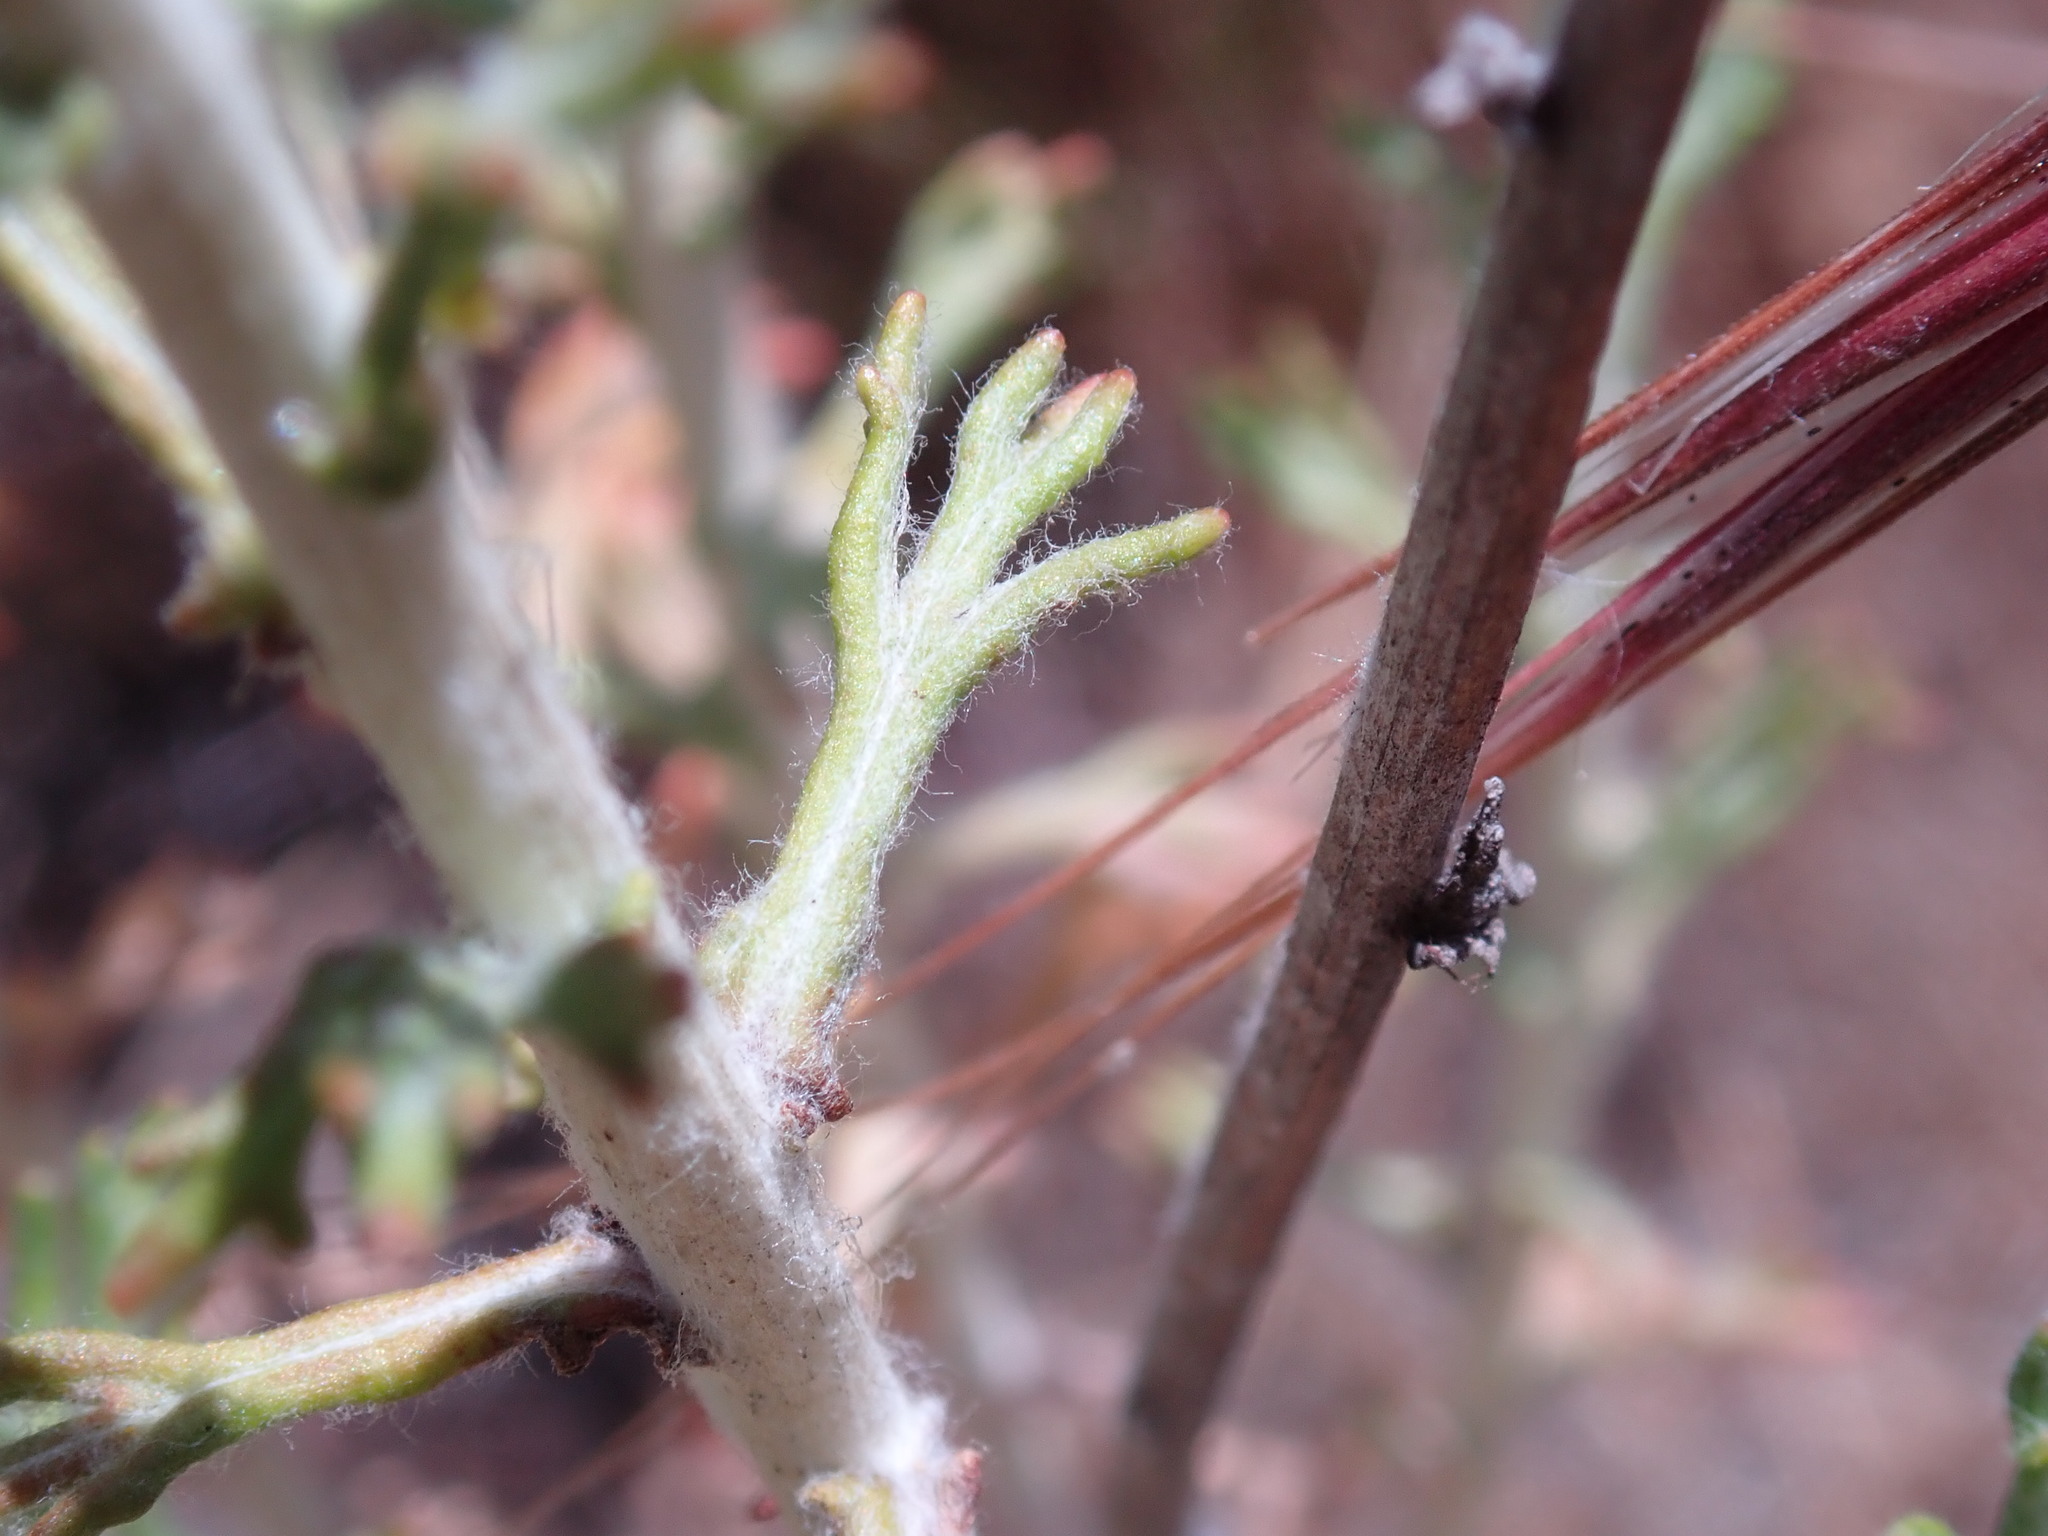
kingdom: Plantae
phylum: Tracheophyta
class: Magnoliopsida
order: Asterales
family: Asteraceae
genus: Eriophyllum
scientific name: Eriophyllum confertiflorum
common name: Golden-yarrow
